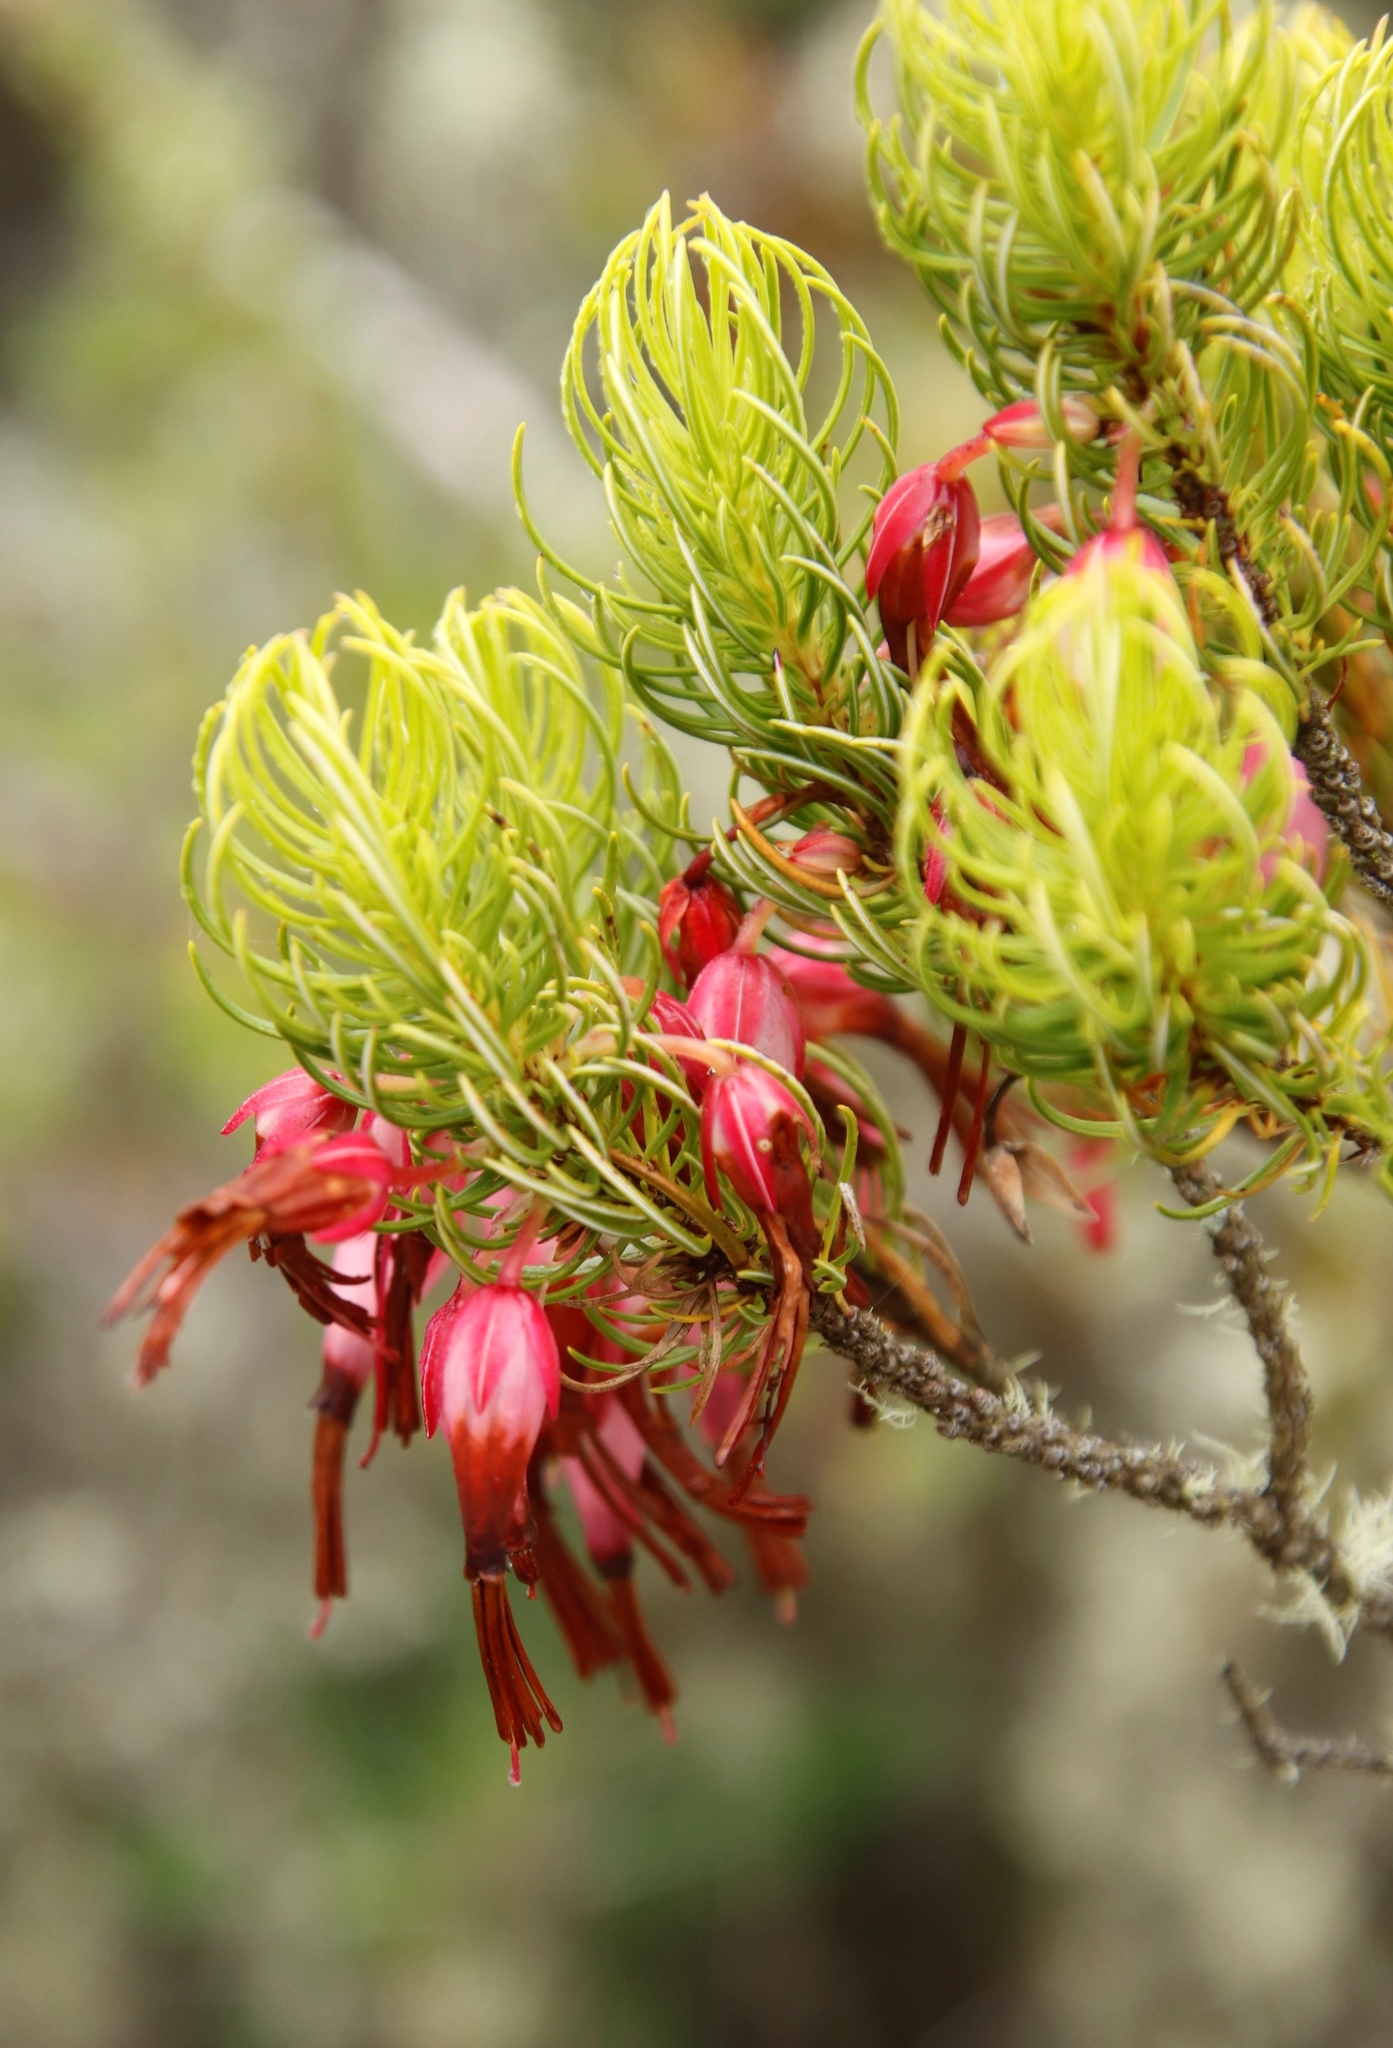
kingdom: Plantae
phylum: Tracheophyta
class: Magnoliopsida
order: Ericales
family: Ericaceae
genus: Erica
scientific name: Erica plukenetii
